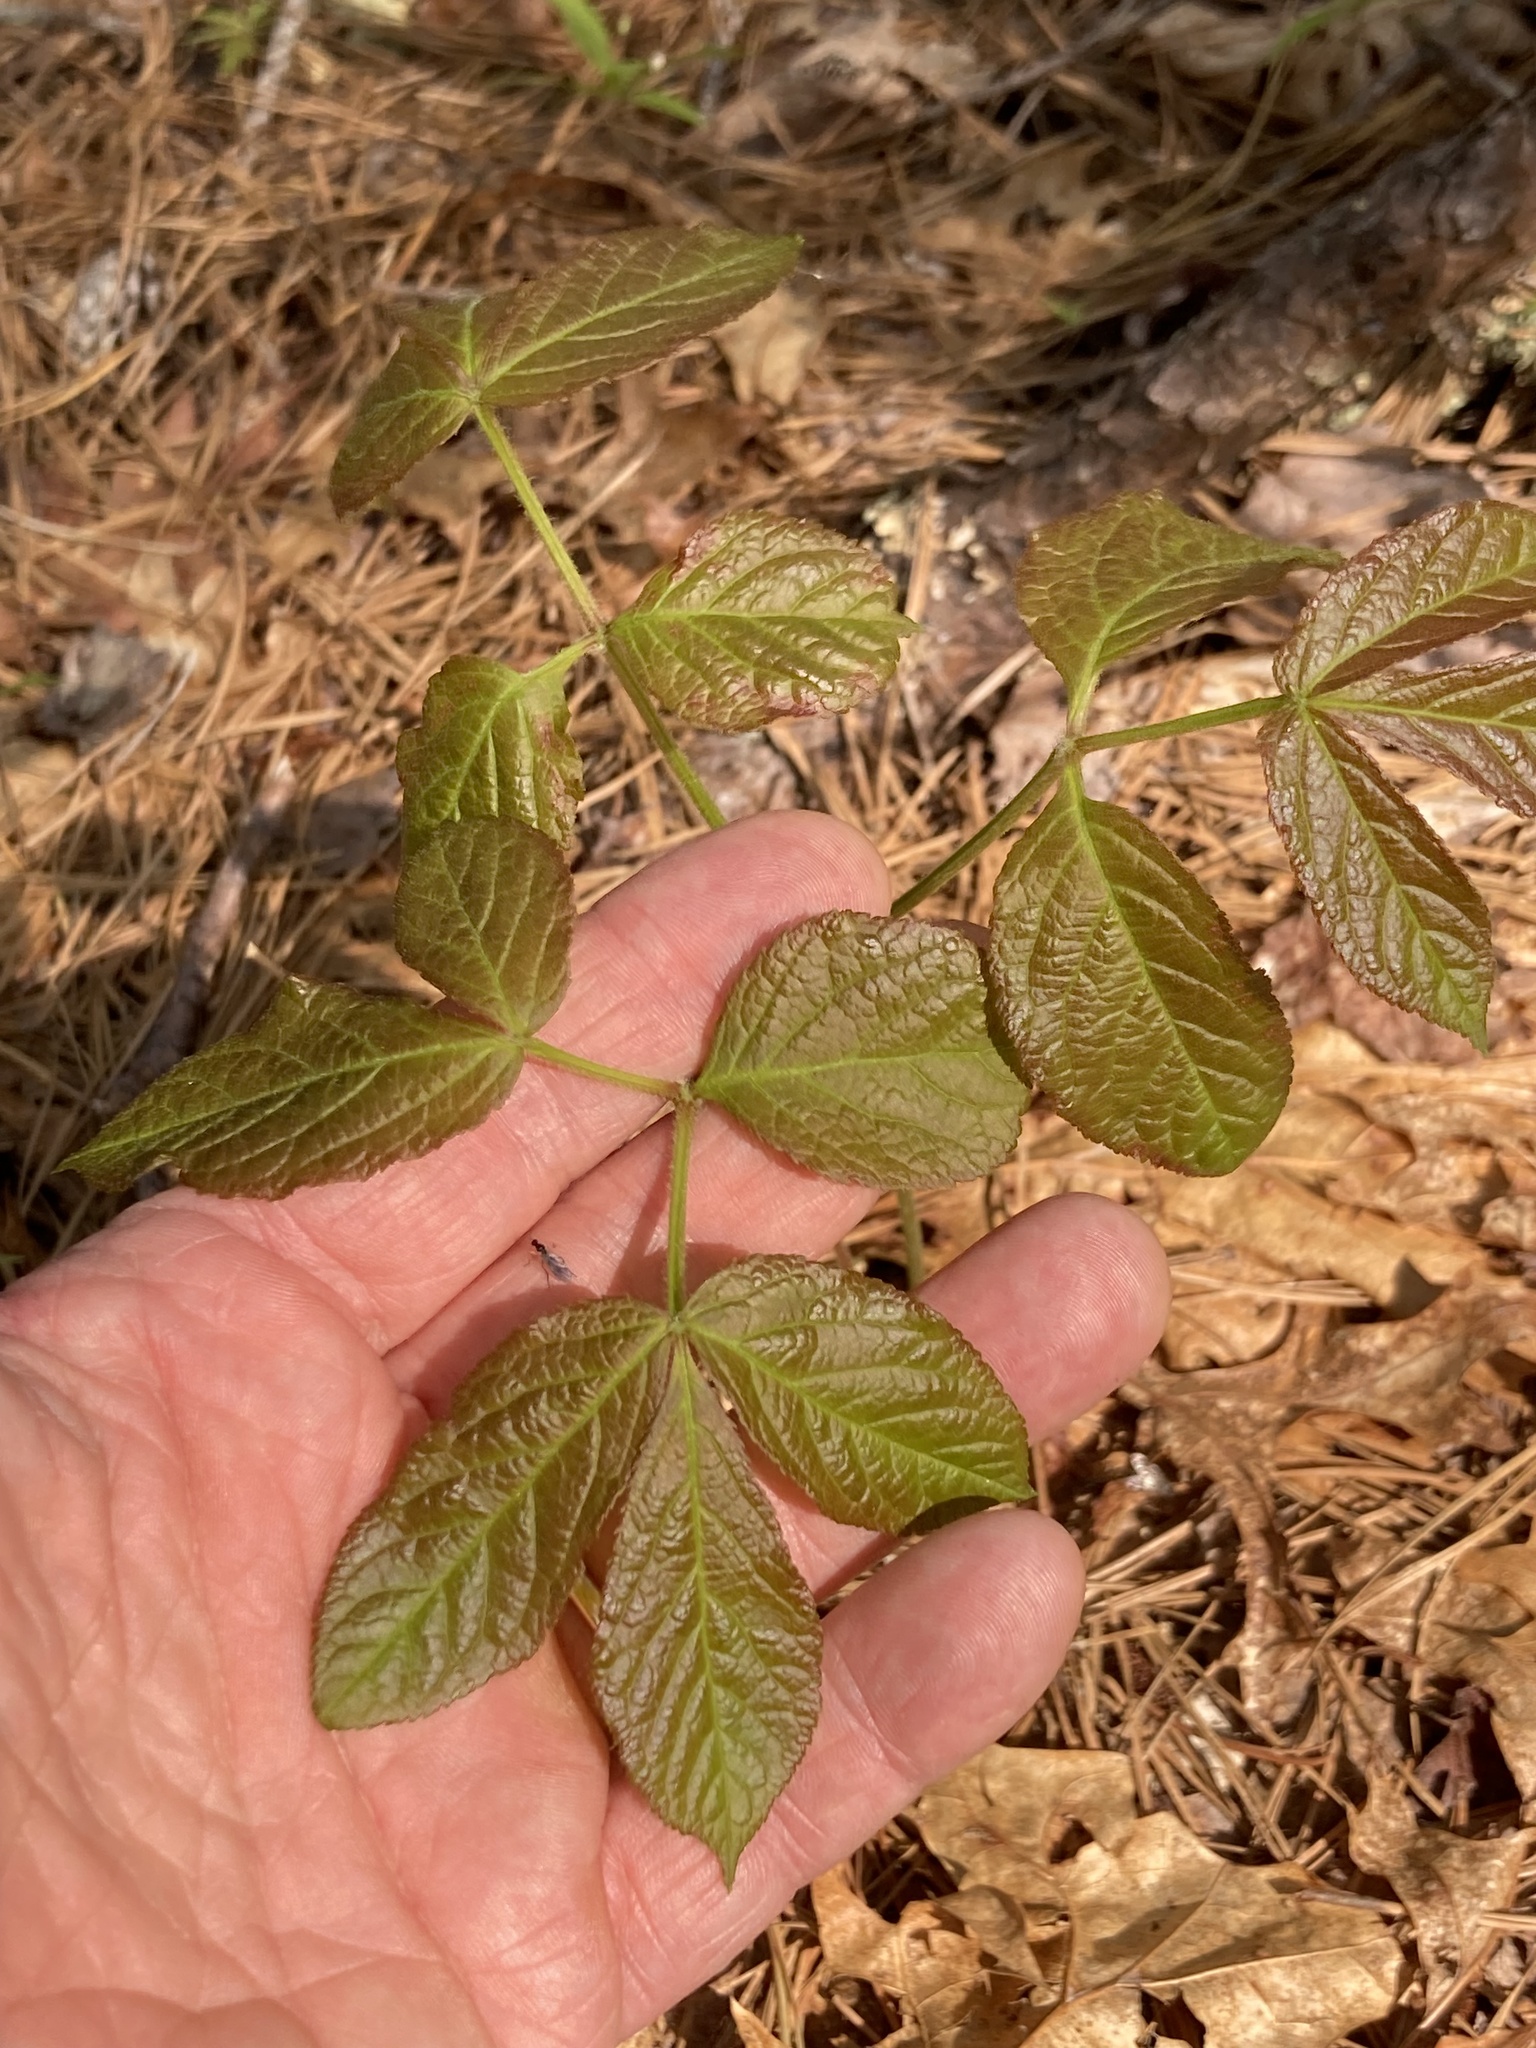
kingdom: Plantae
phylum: Tracheophyta
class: Magnoliopsida
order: Apiales
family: Araliaceae
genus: Aralia
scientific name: Aralia nudicaulis
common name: Wild sarsaparilla
